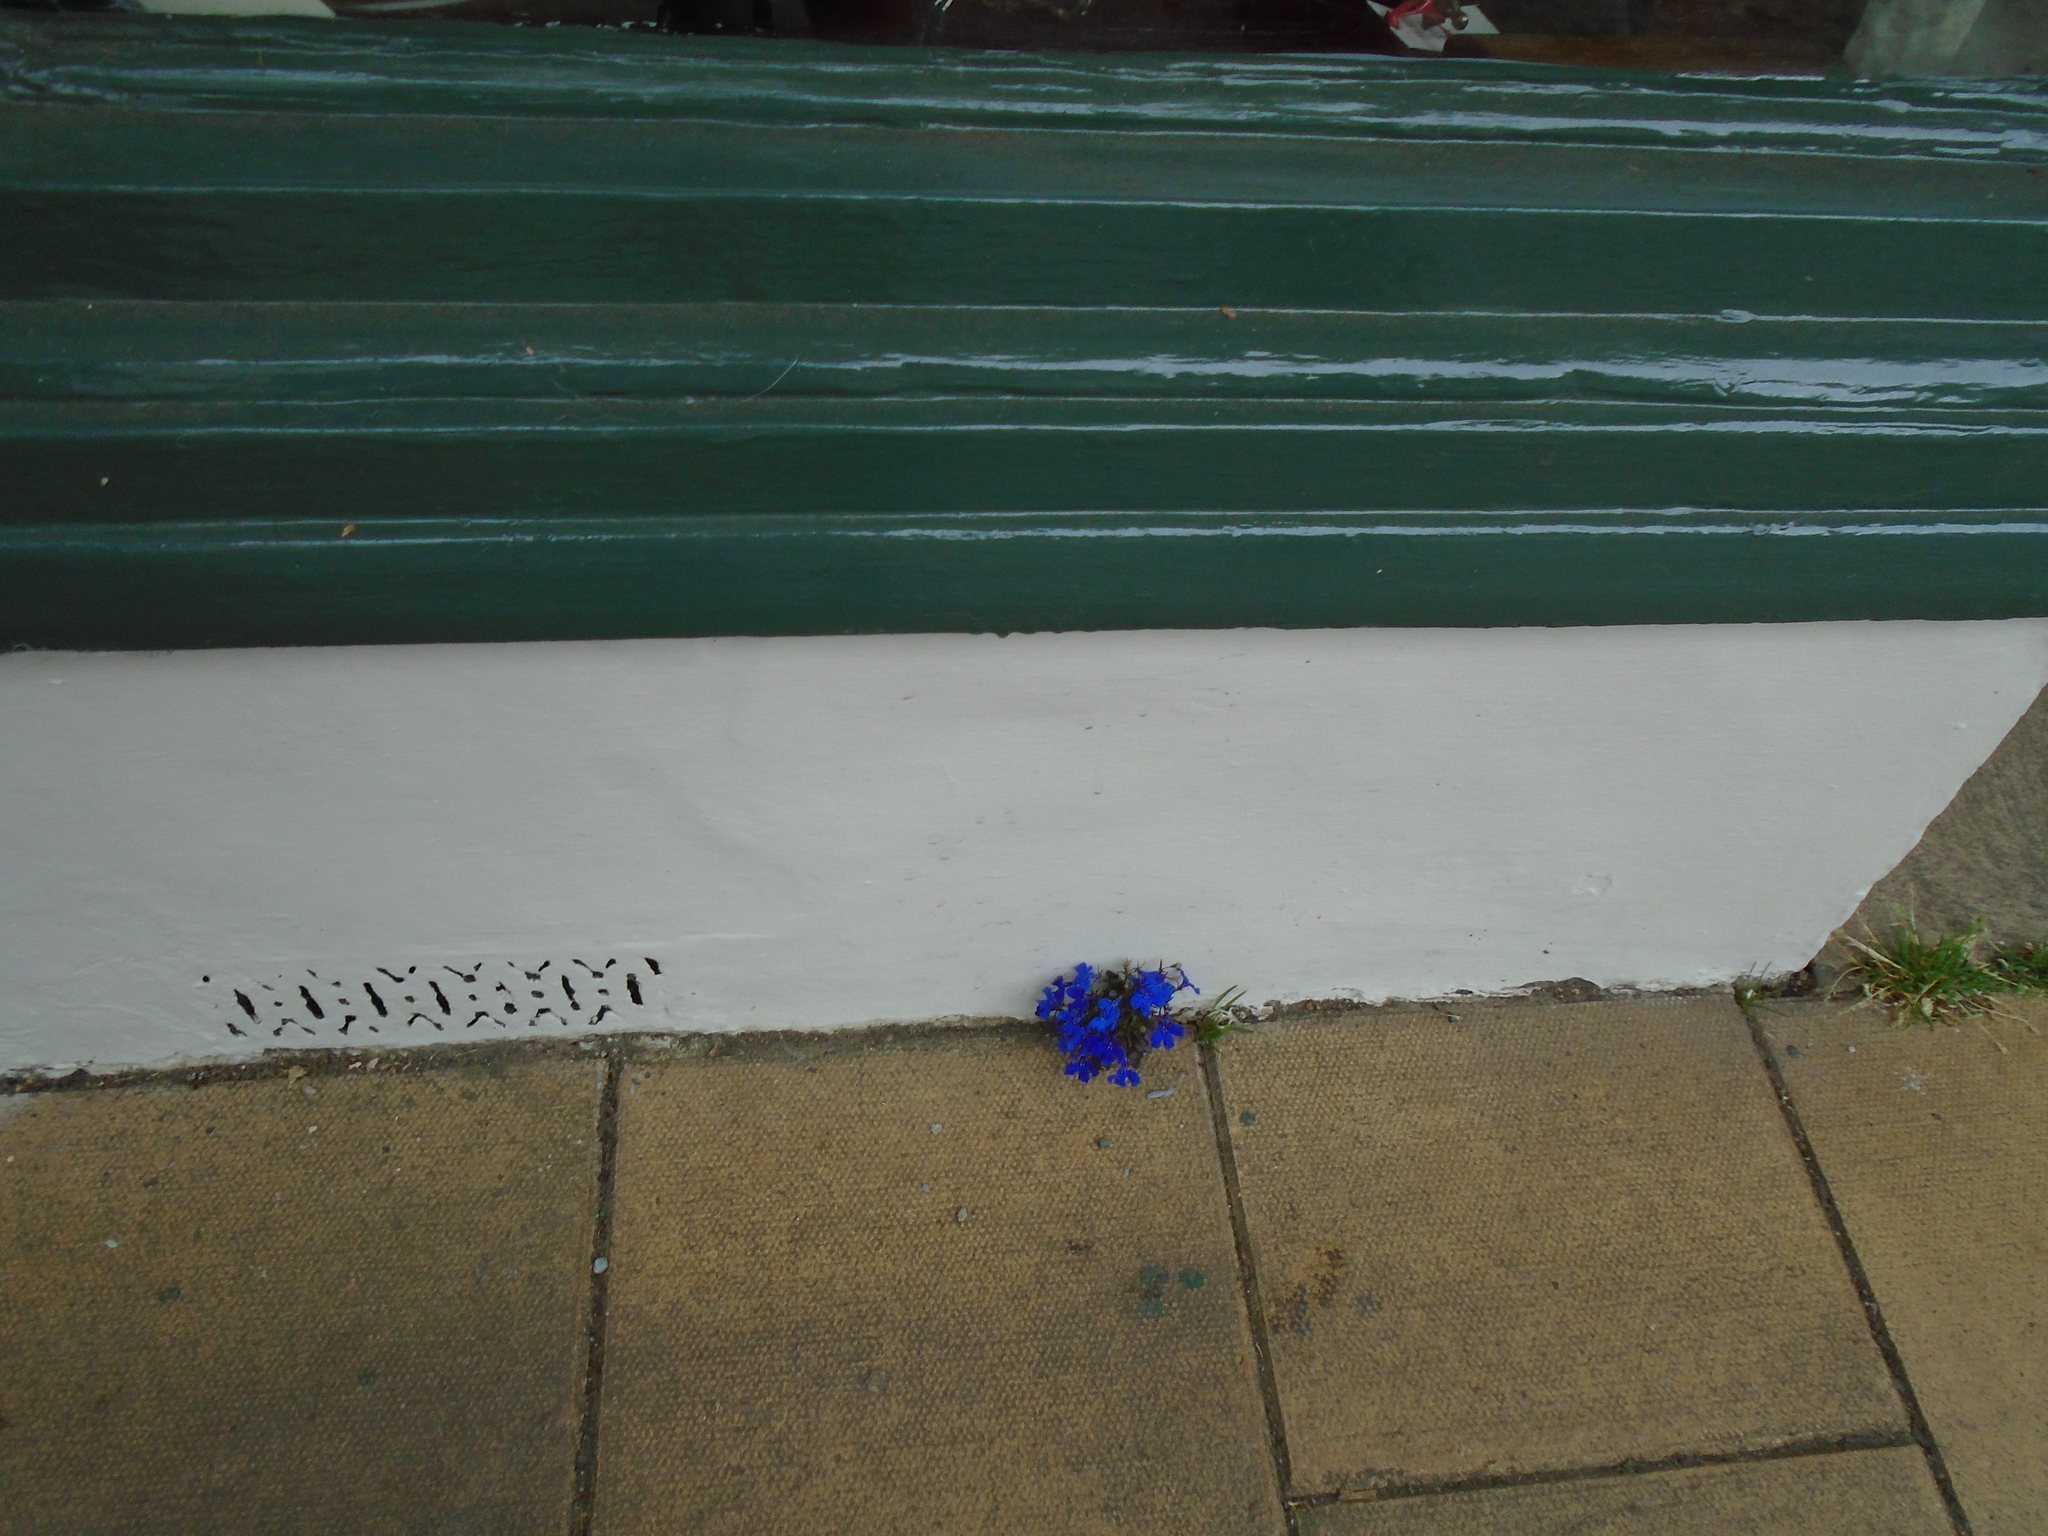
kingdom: Plantae
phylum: Tracheophyta
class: Magnoliopsida
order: Asterales
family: Campanulaceae
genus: Lobelia
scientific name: Lobelia erinus
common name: Edging lobelia
